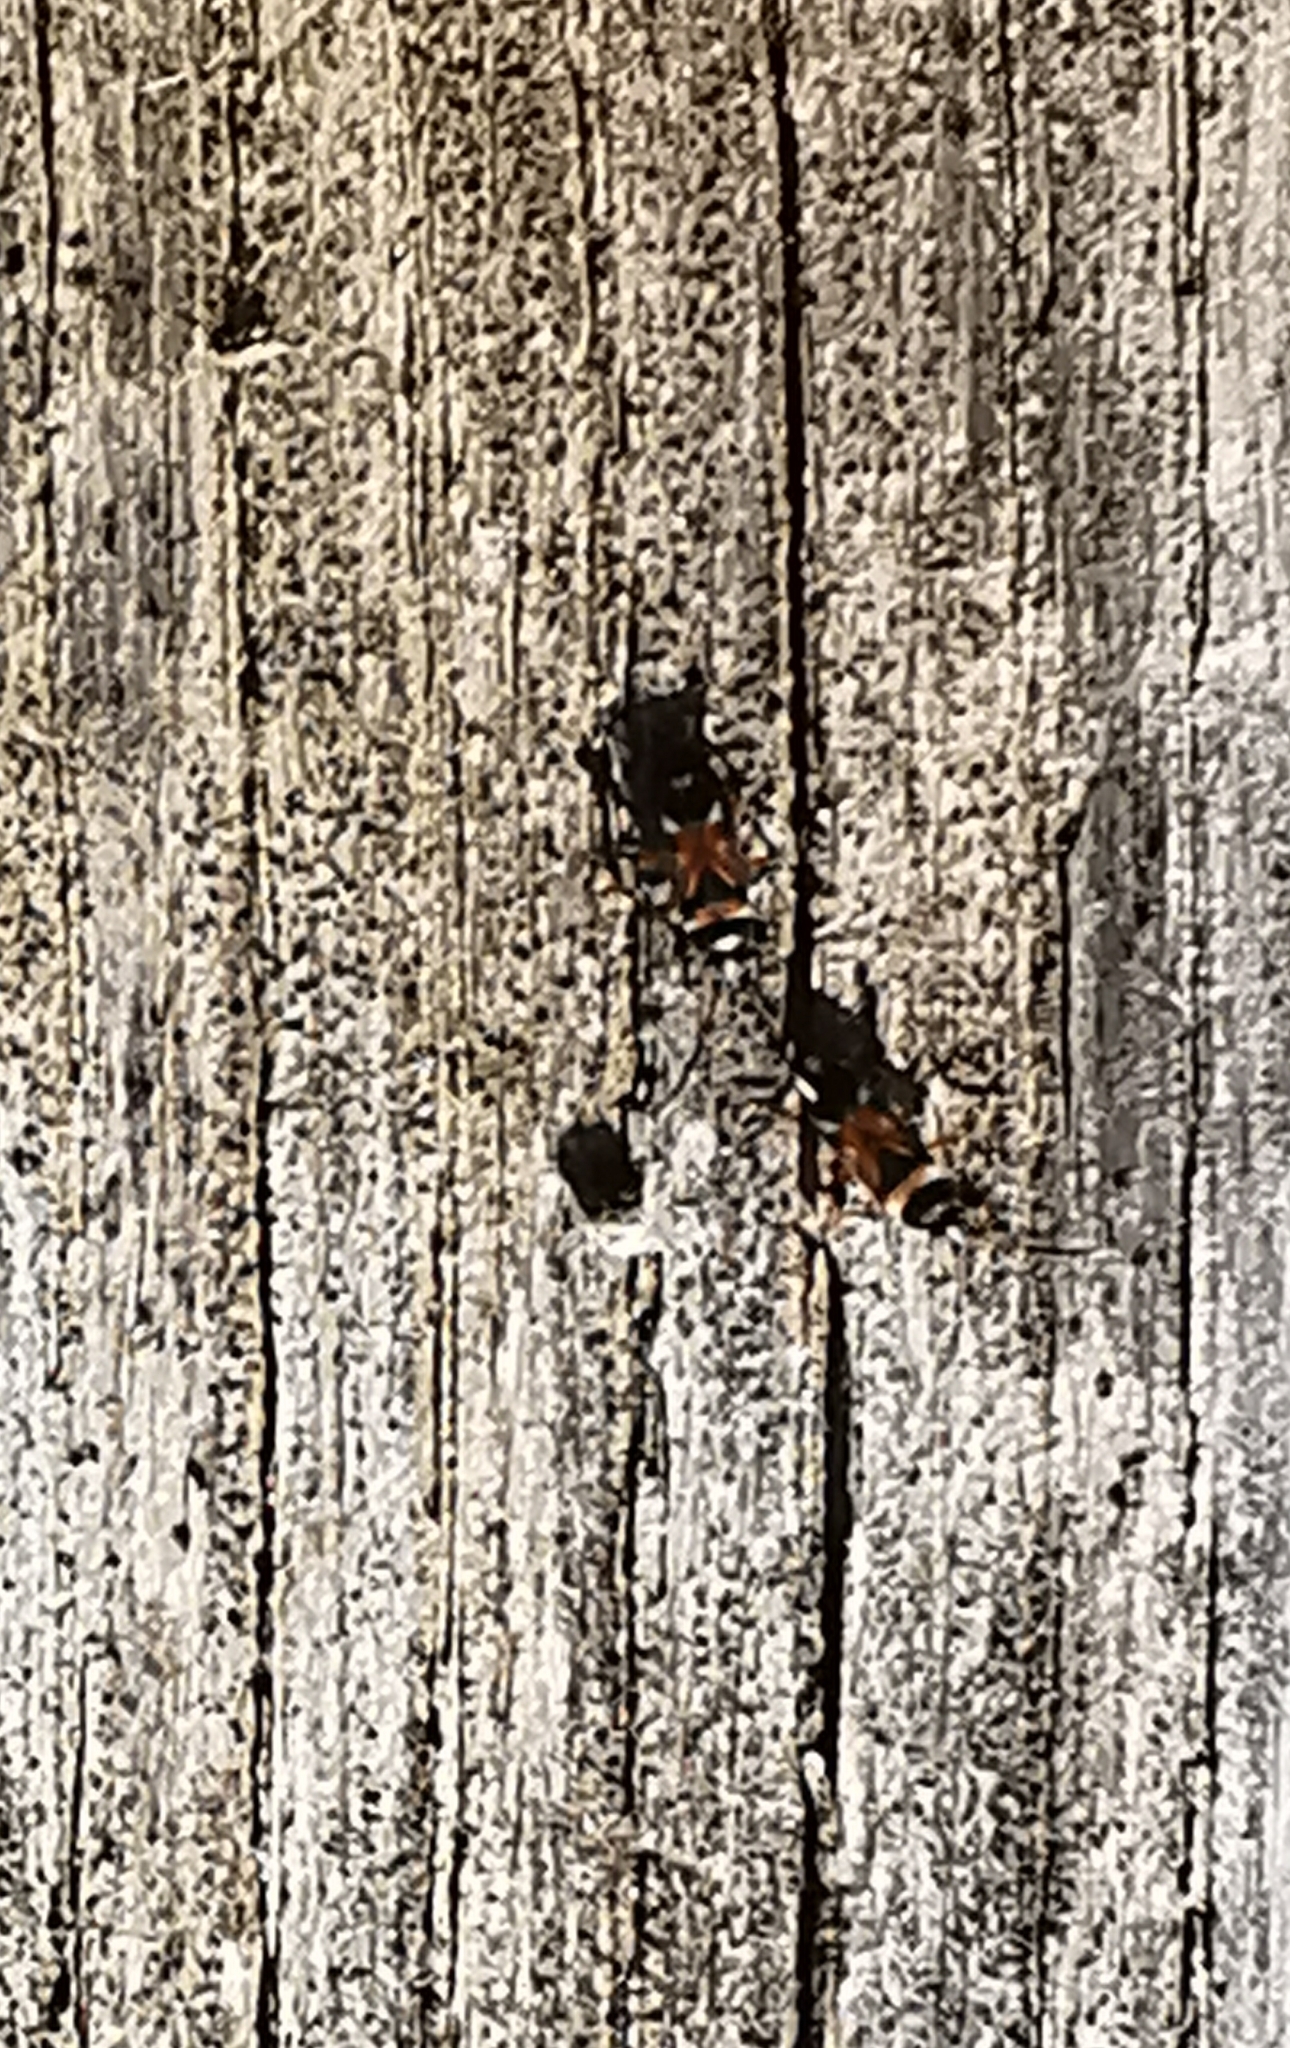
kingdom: Animalia
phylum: Arthropoda
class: Insecta
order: Hemiptera
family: Rhyparochromidae
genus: Raglius
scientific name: Raglius alboacuminatus
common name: Dirt-colored seed bug
